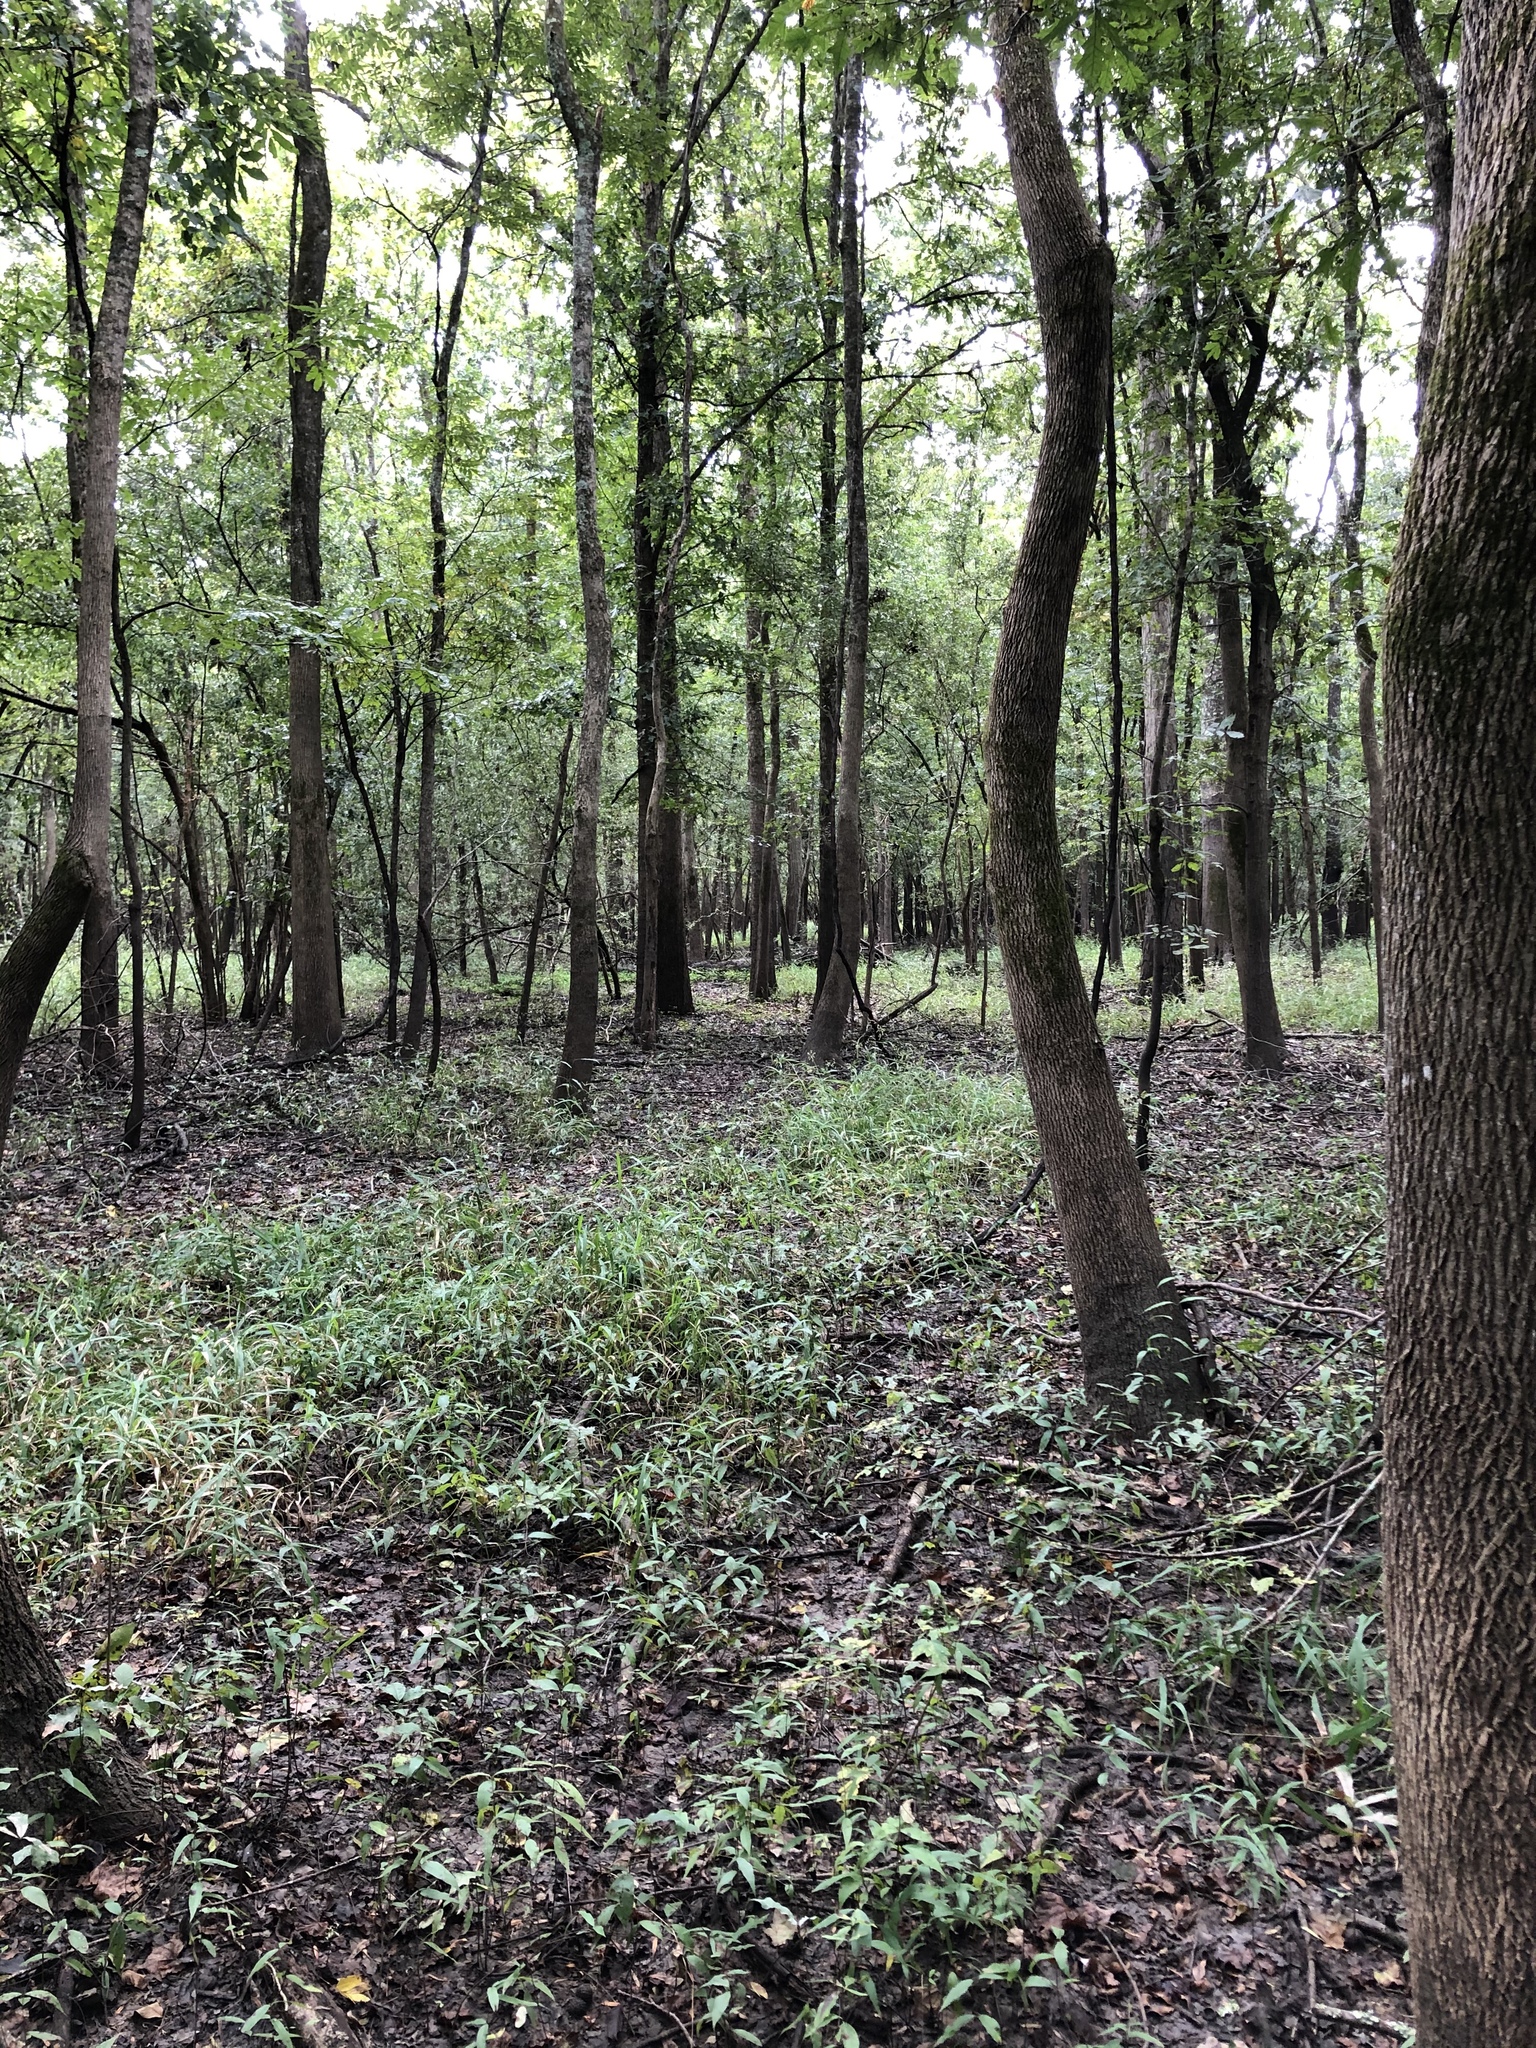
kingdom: Plantae
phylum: Tracheophyta
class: Liliopsida
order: Poales
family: Poaceae
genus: Leersia
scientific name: Leersia lenticularis
